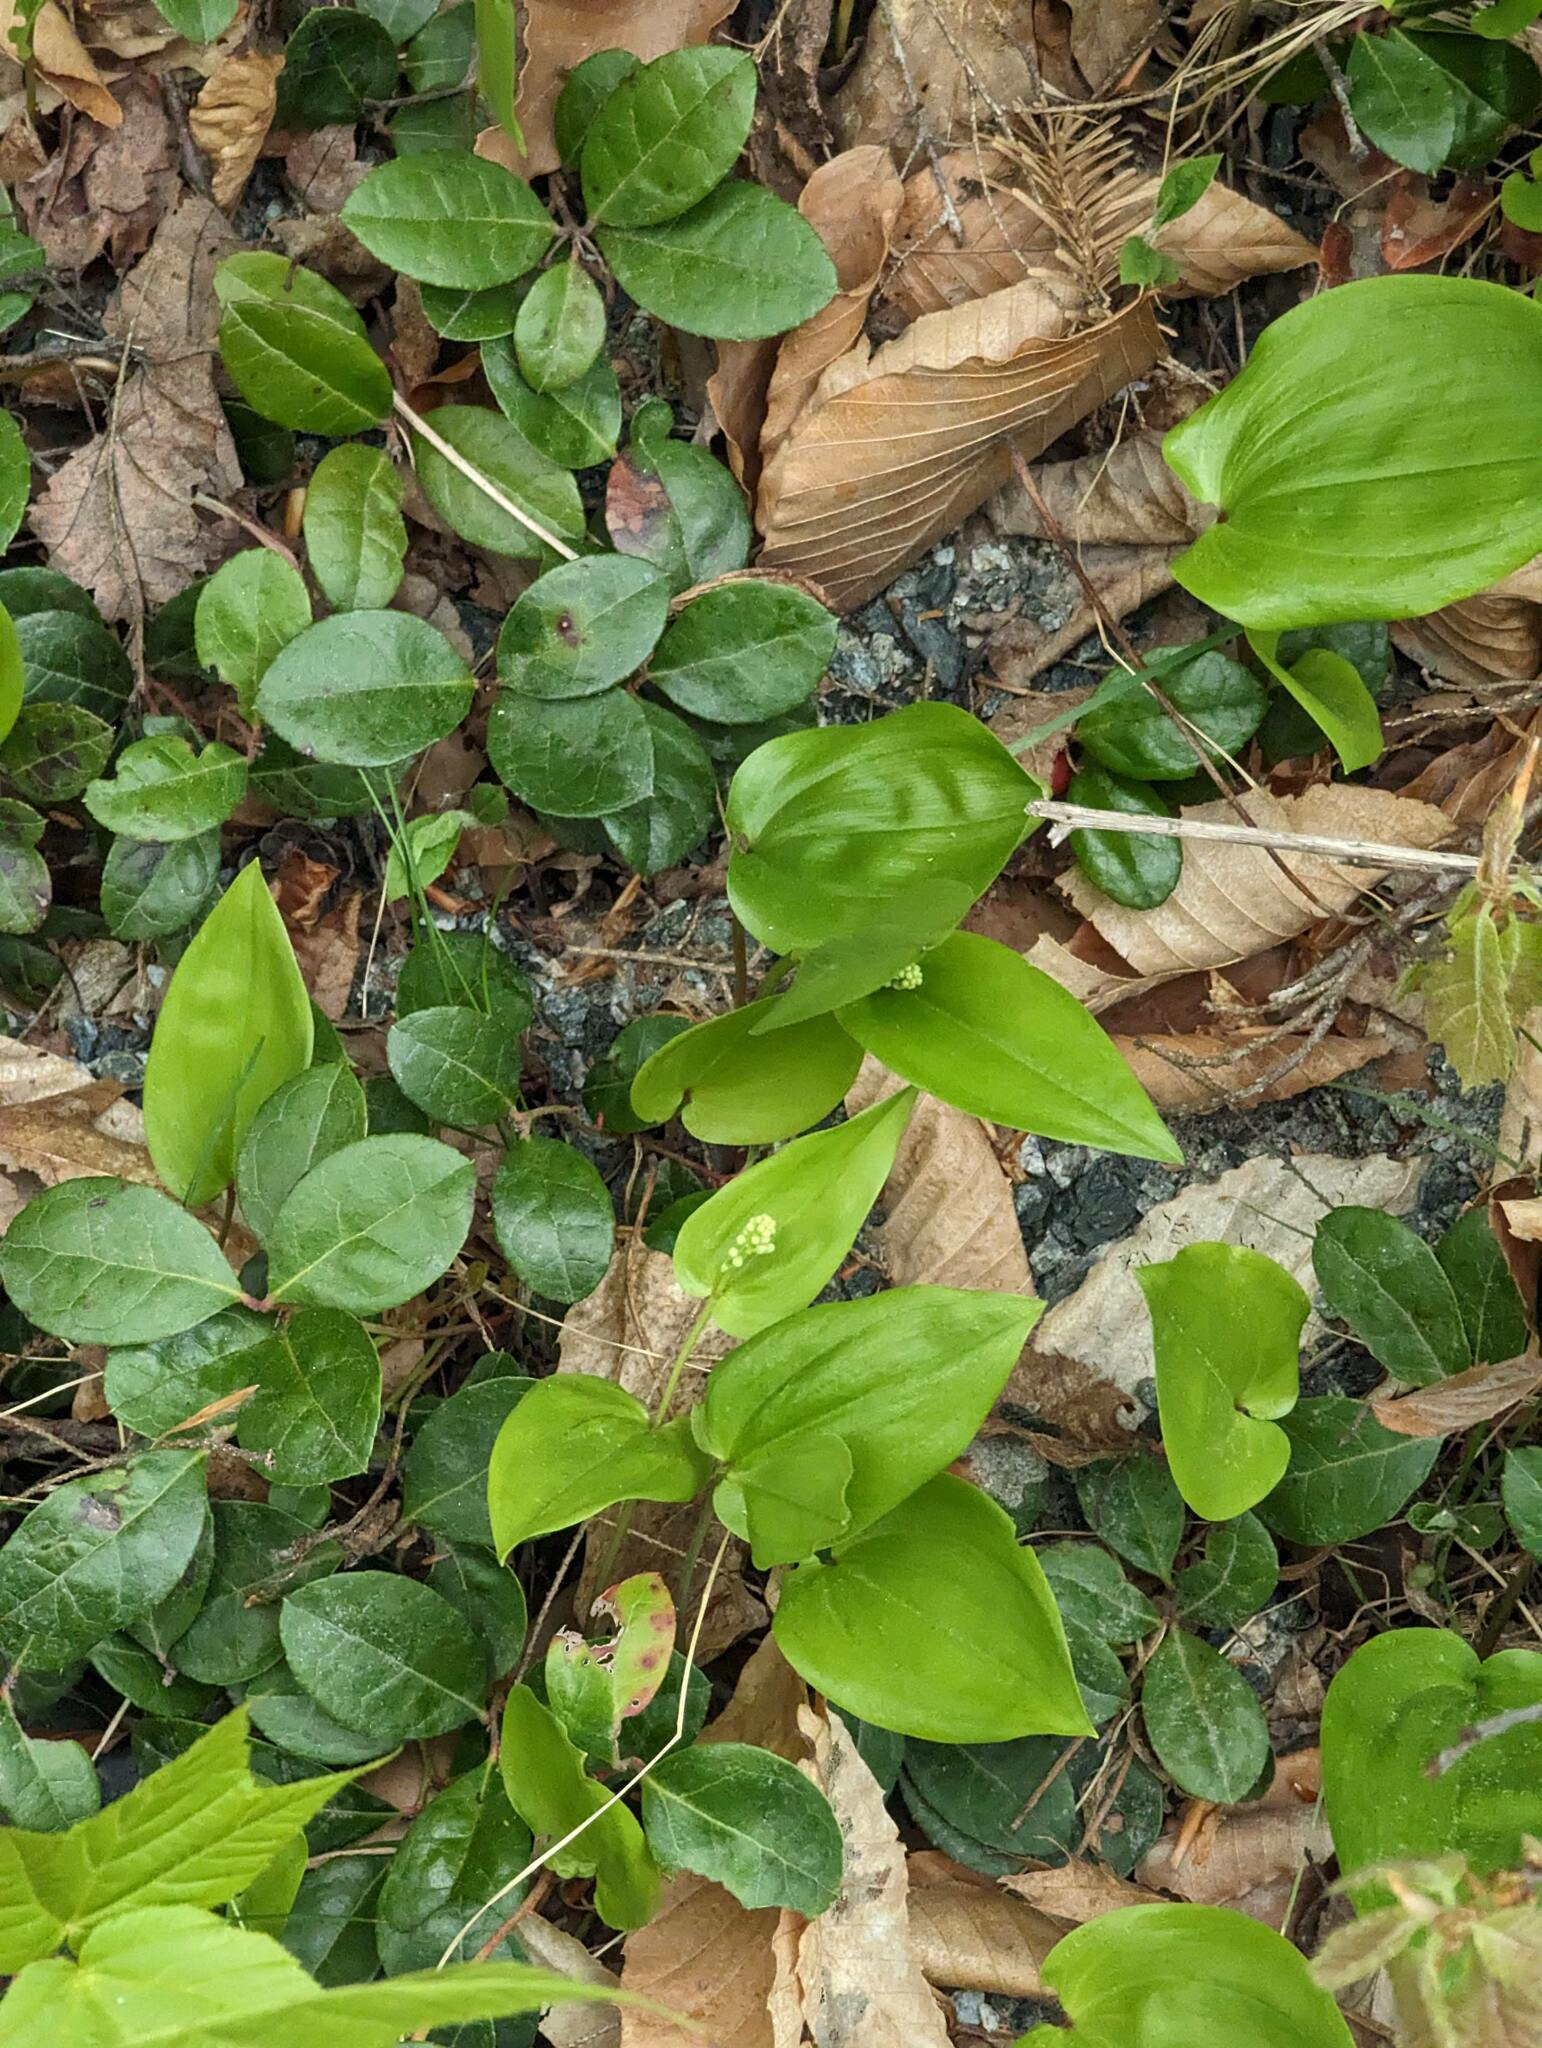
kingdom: Plantae
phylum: Tracheophyta
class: Liliopsida
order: Asparagales
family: Asparagaceae
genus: Maianthemum
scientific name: Maianthemum canadense
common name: False lily-of-the-valley
